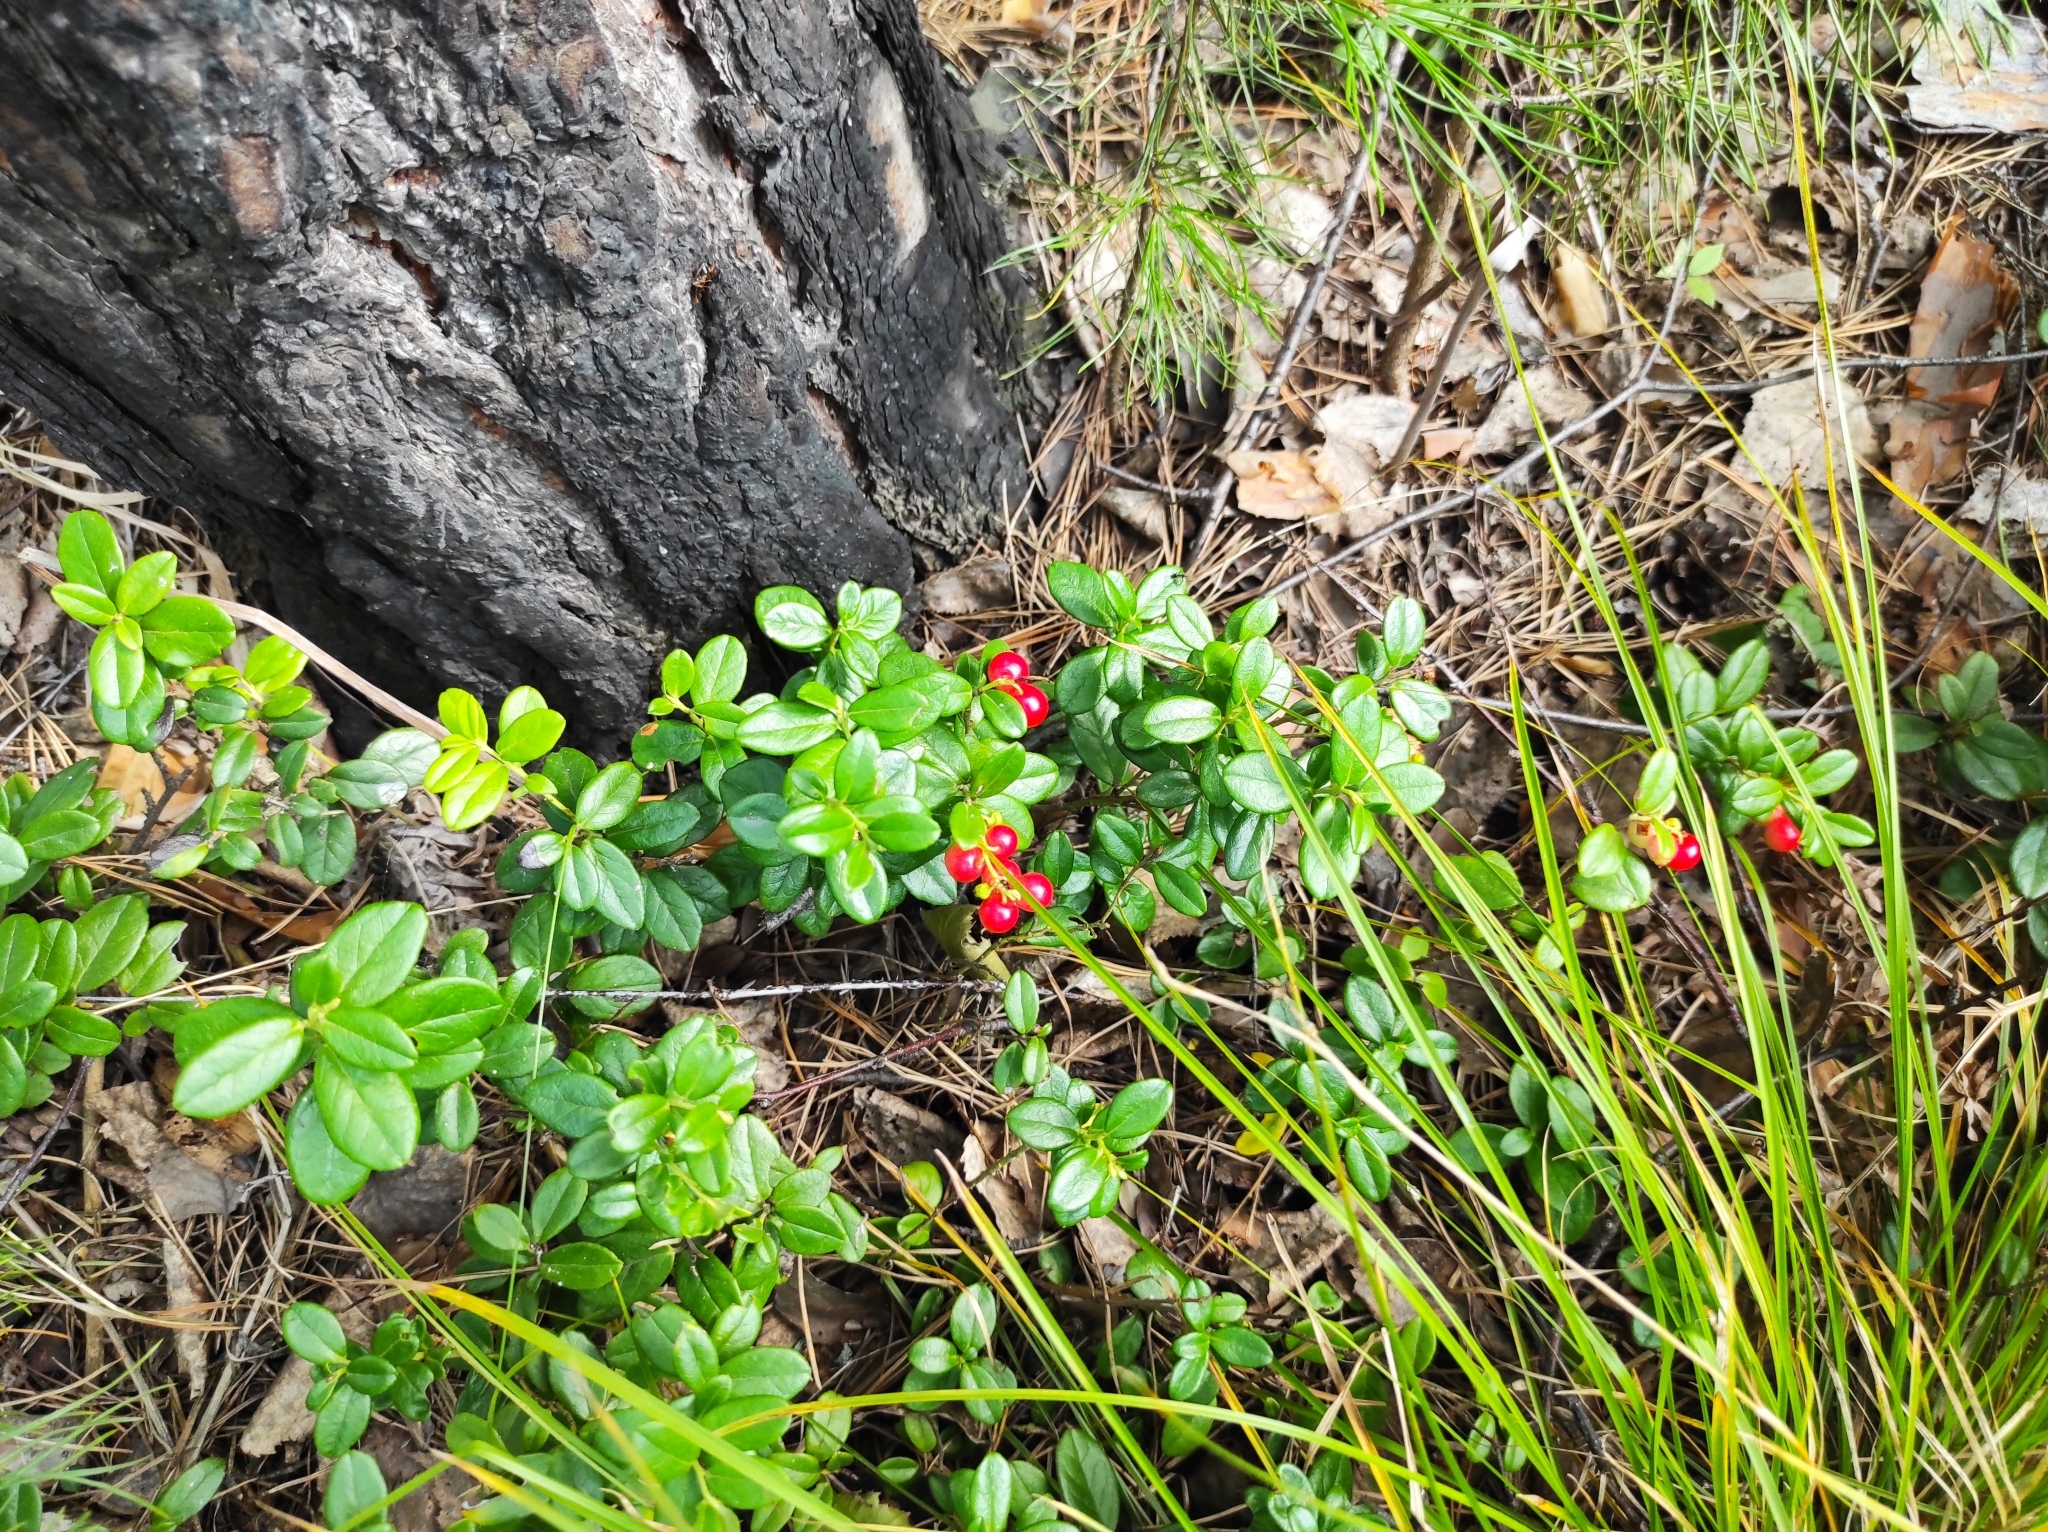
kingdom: Plantae
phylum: Tracheophyta
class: Magnoliopsida
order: Ericales
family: Ericaceae
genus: Vaccinium
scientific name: Vaccinium vitis-idaea
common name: Cowberry
